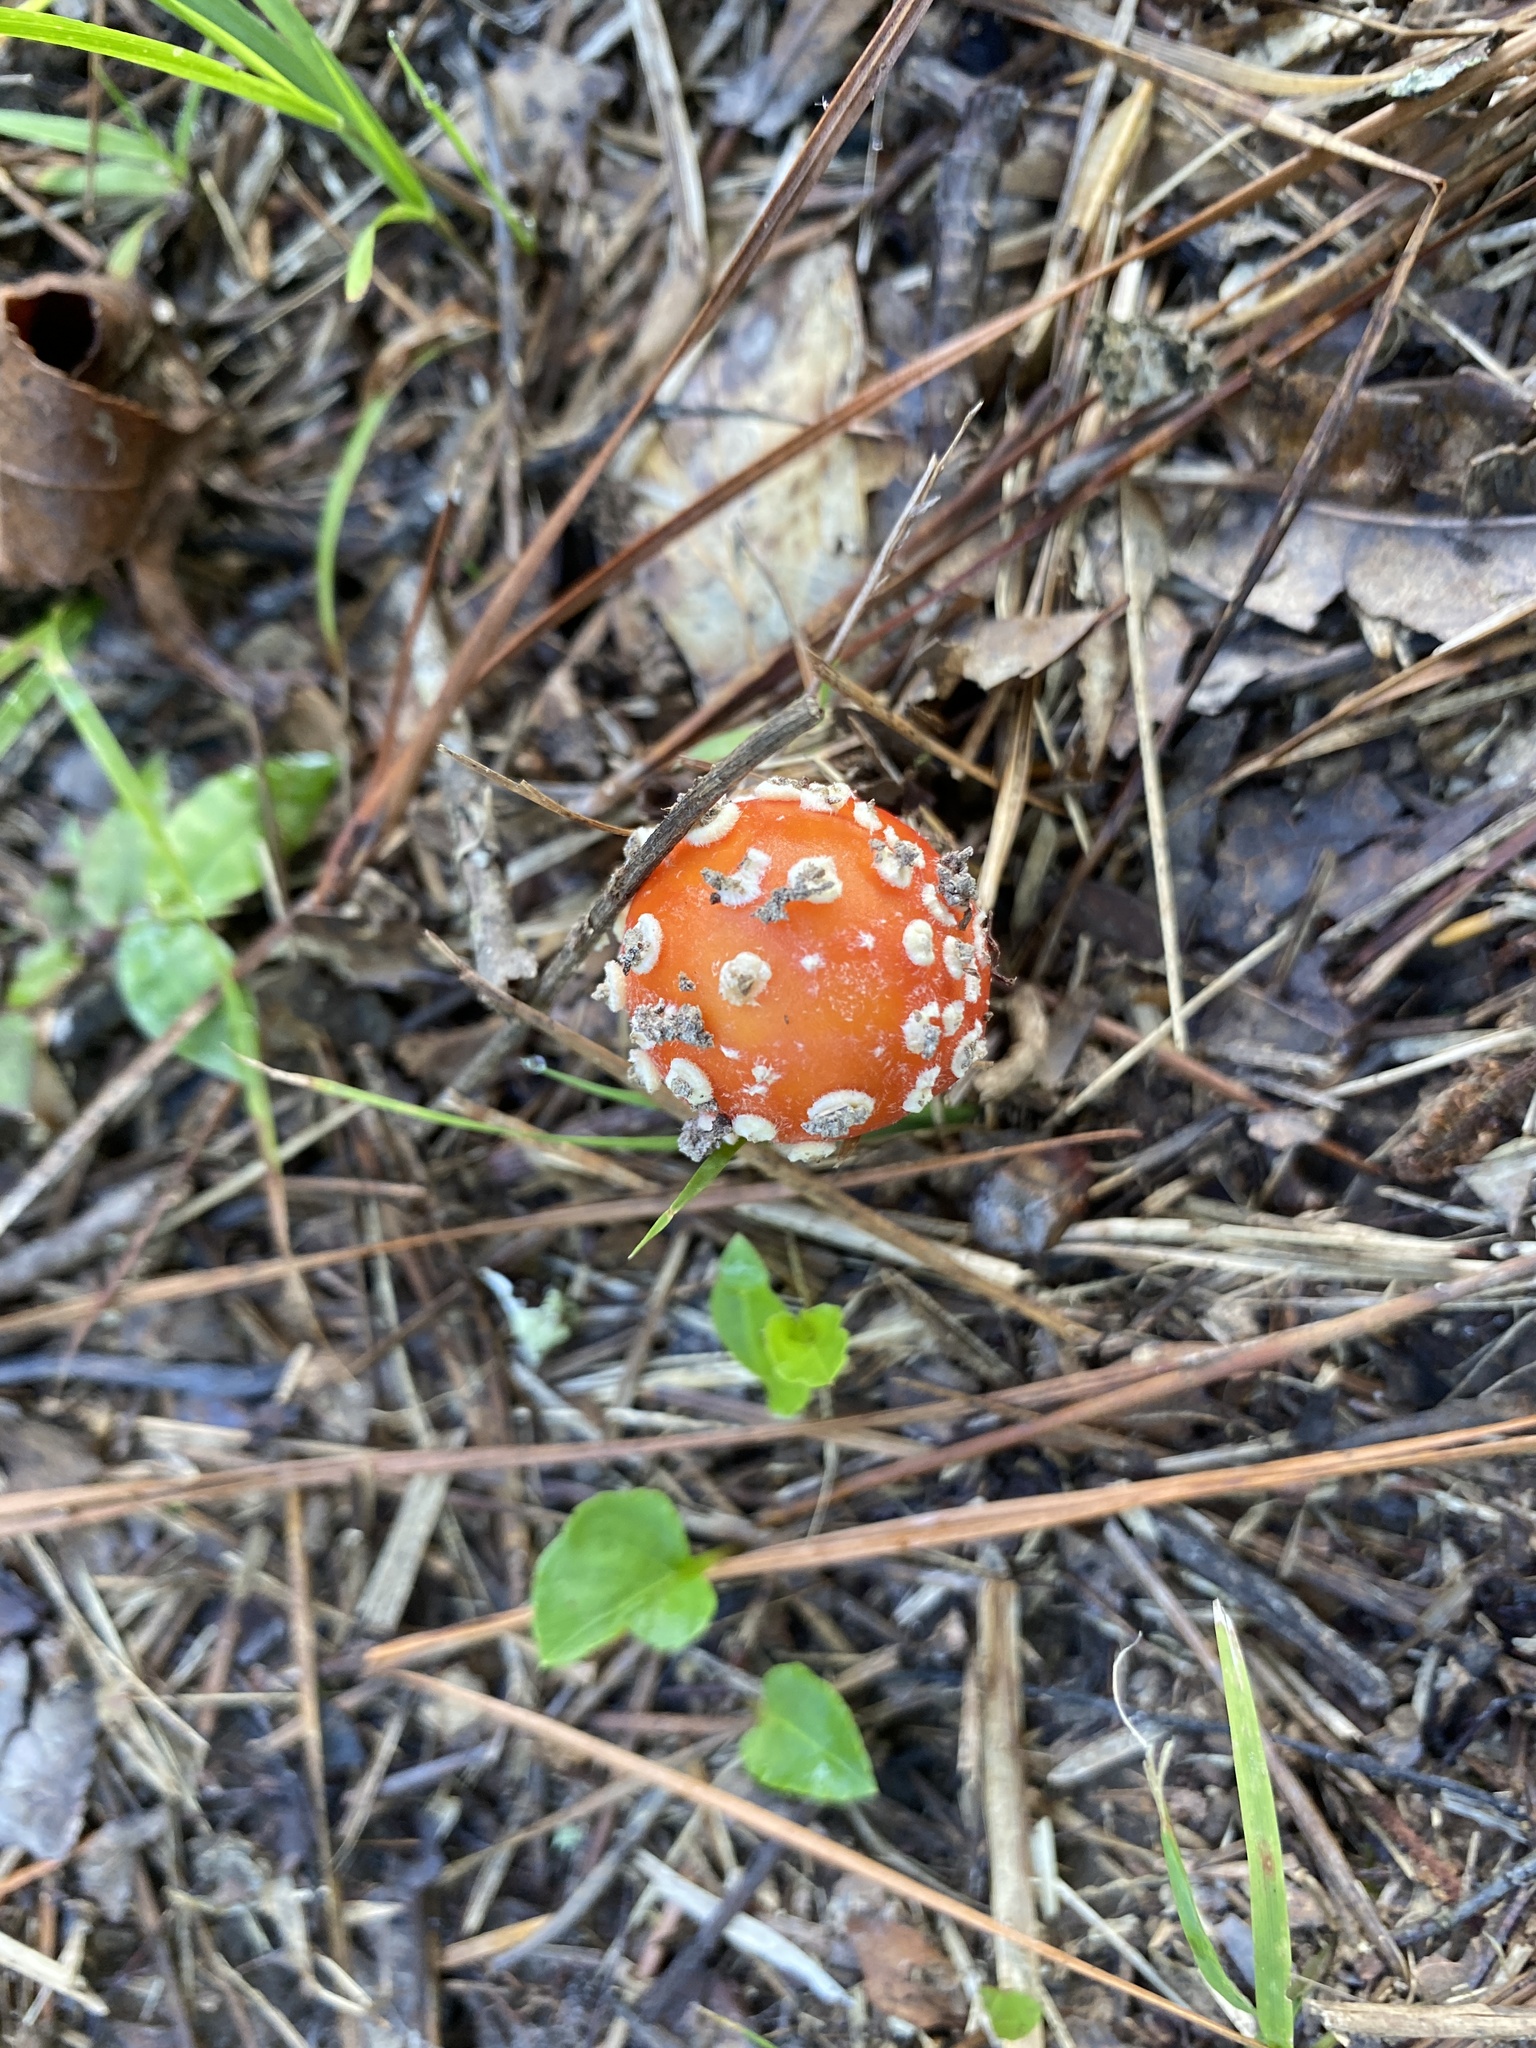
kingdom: Fungi
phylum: Basidiomycota
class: Agaricomycetes
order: Agaricales
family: Amanitaceae
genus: Amanita
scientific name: Amanita parcivolvata
